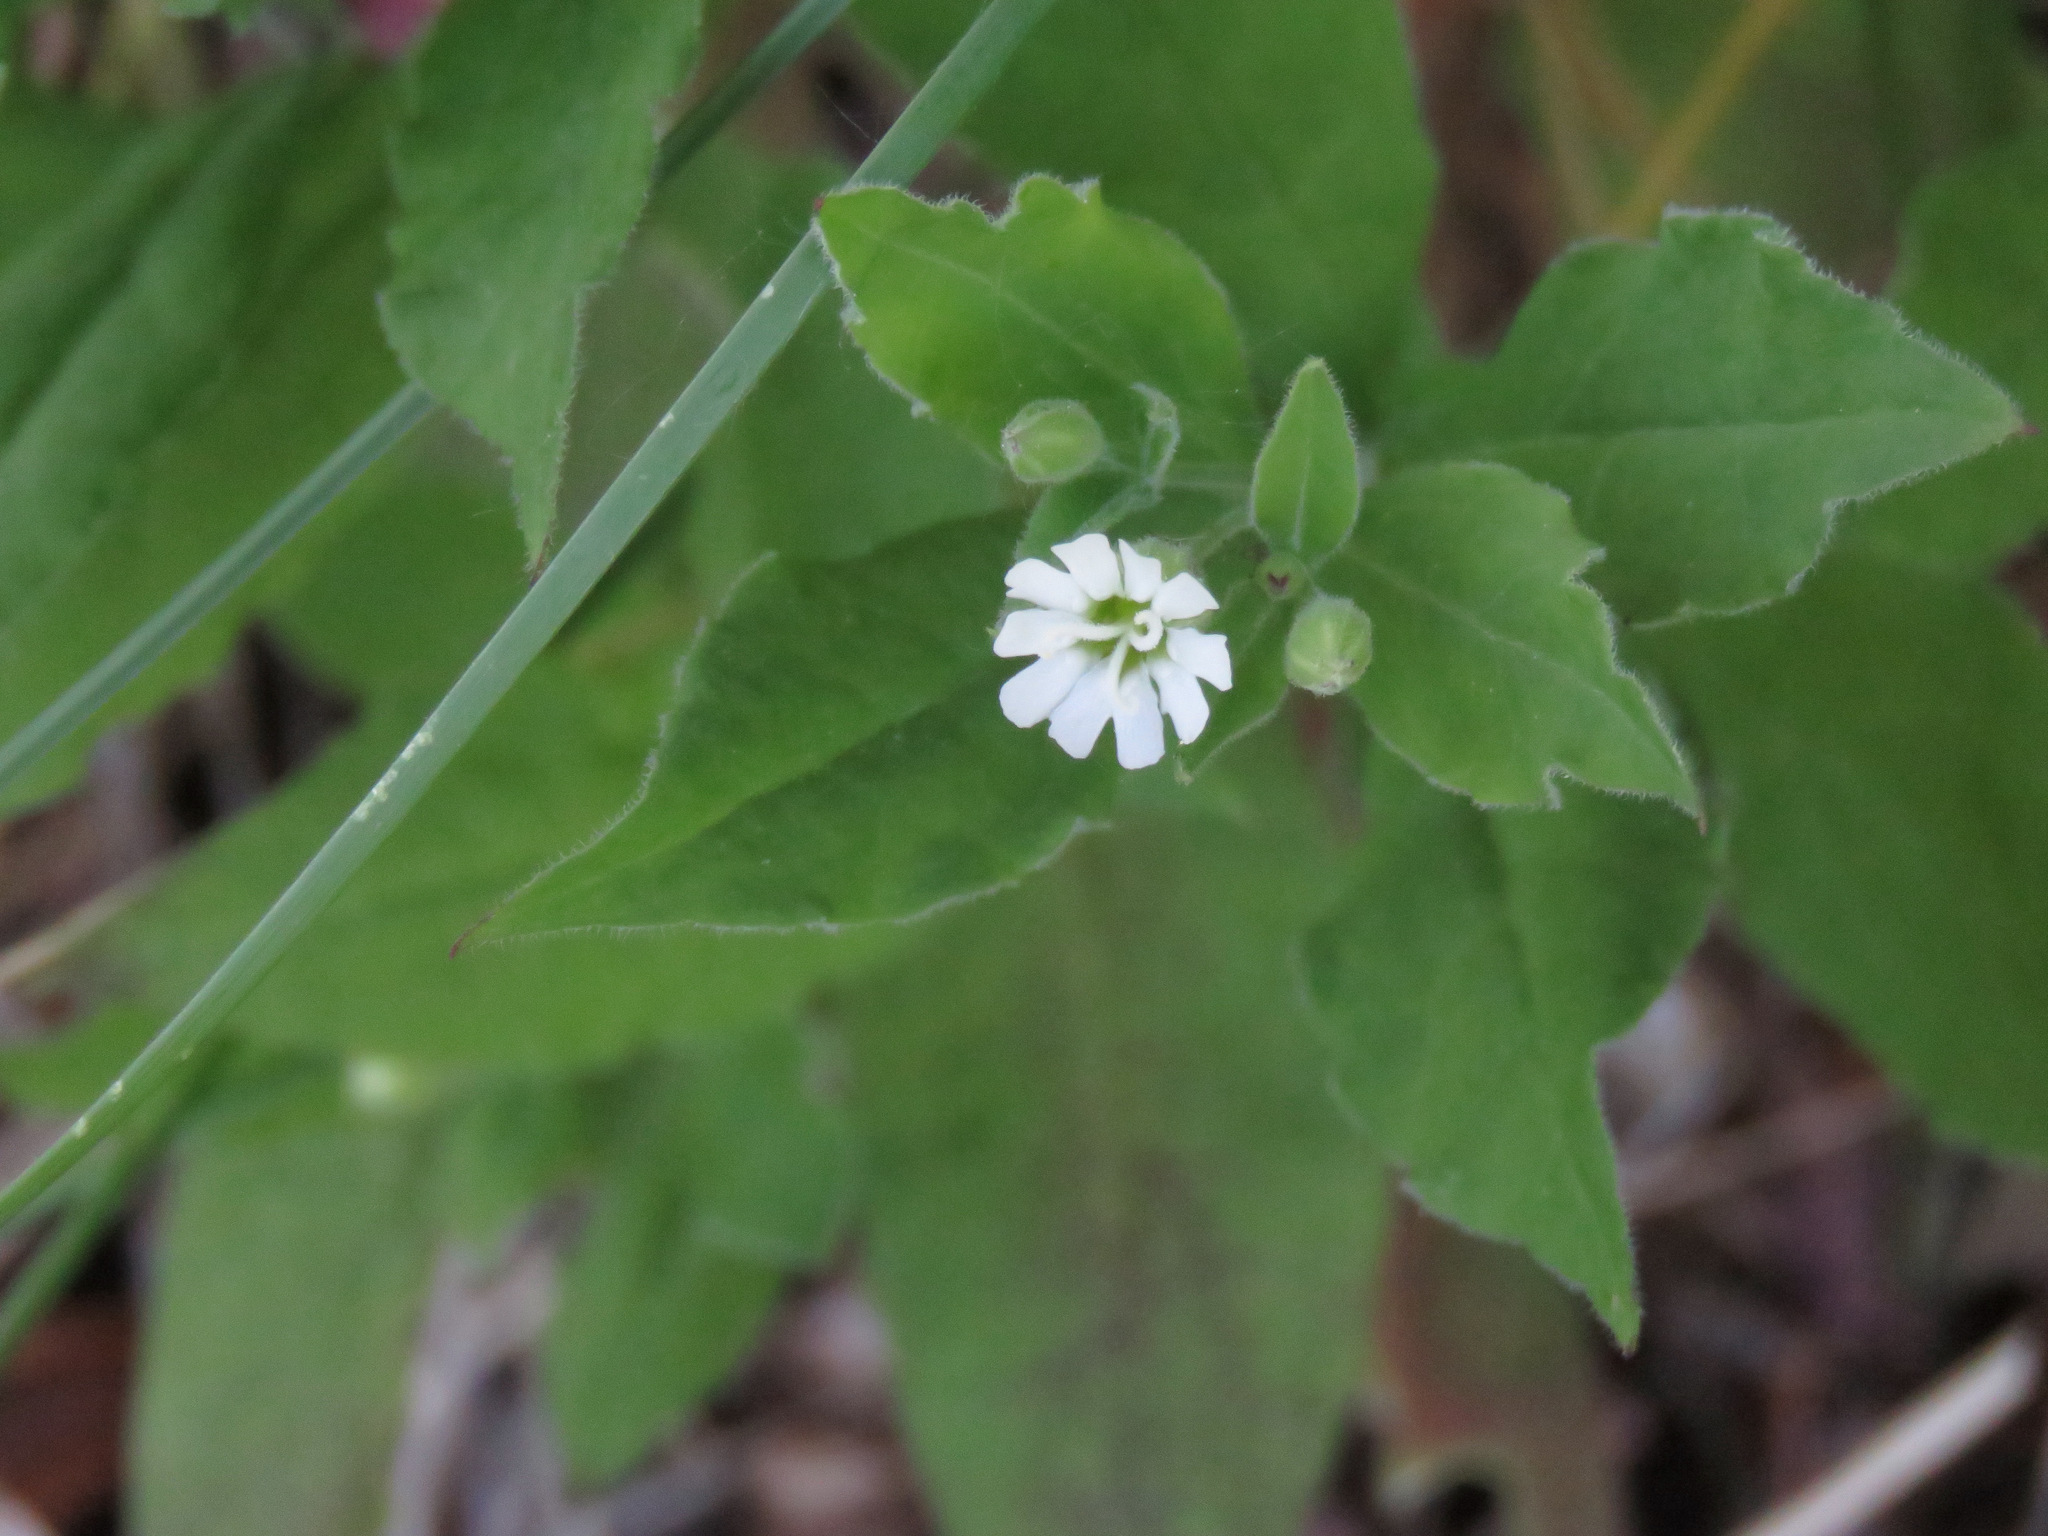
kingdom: Plantae
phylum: Tracheophyta
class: Magnoliopsida
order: Caryophyllales
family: Caryophyllaceae
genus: Silene
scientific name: Silene menziesii
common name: Menzies's catchfly
